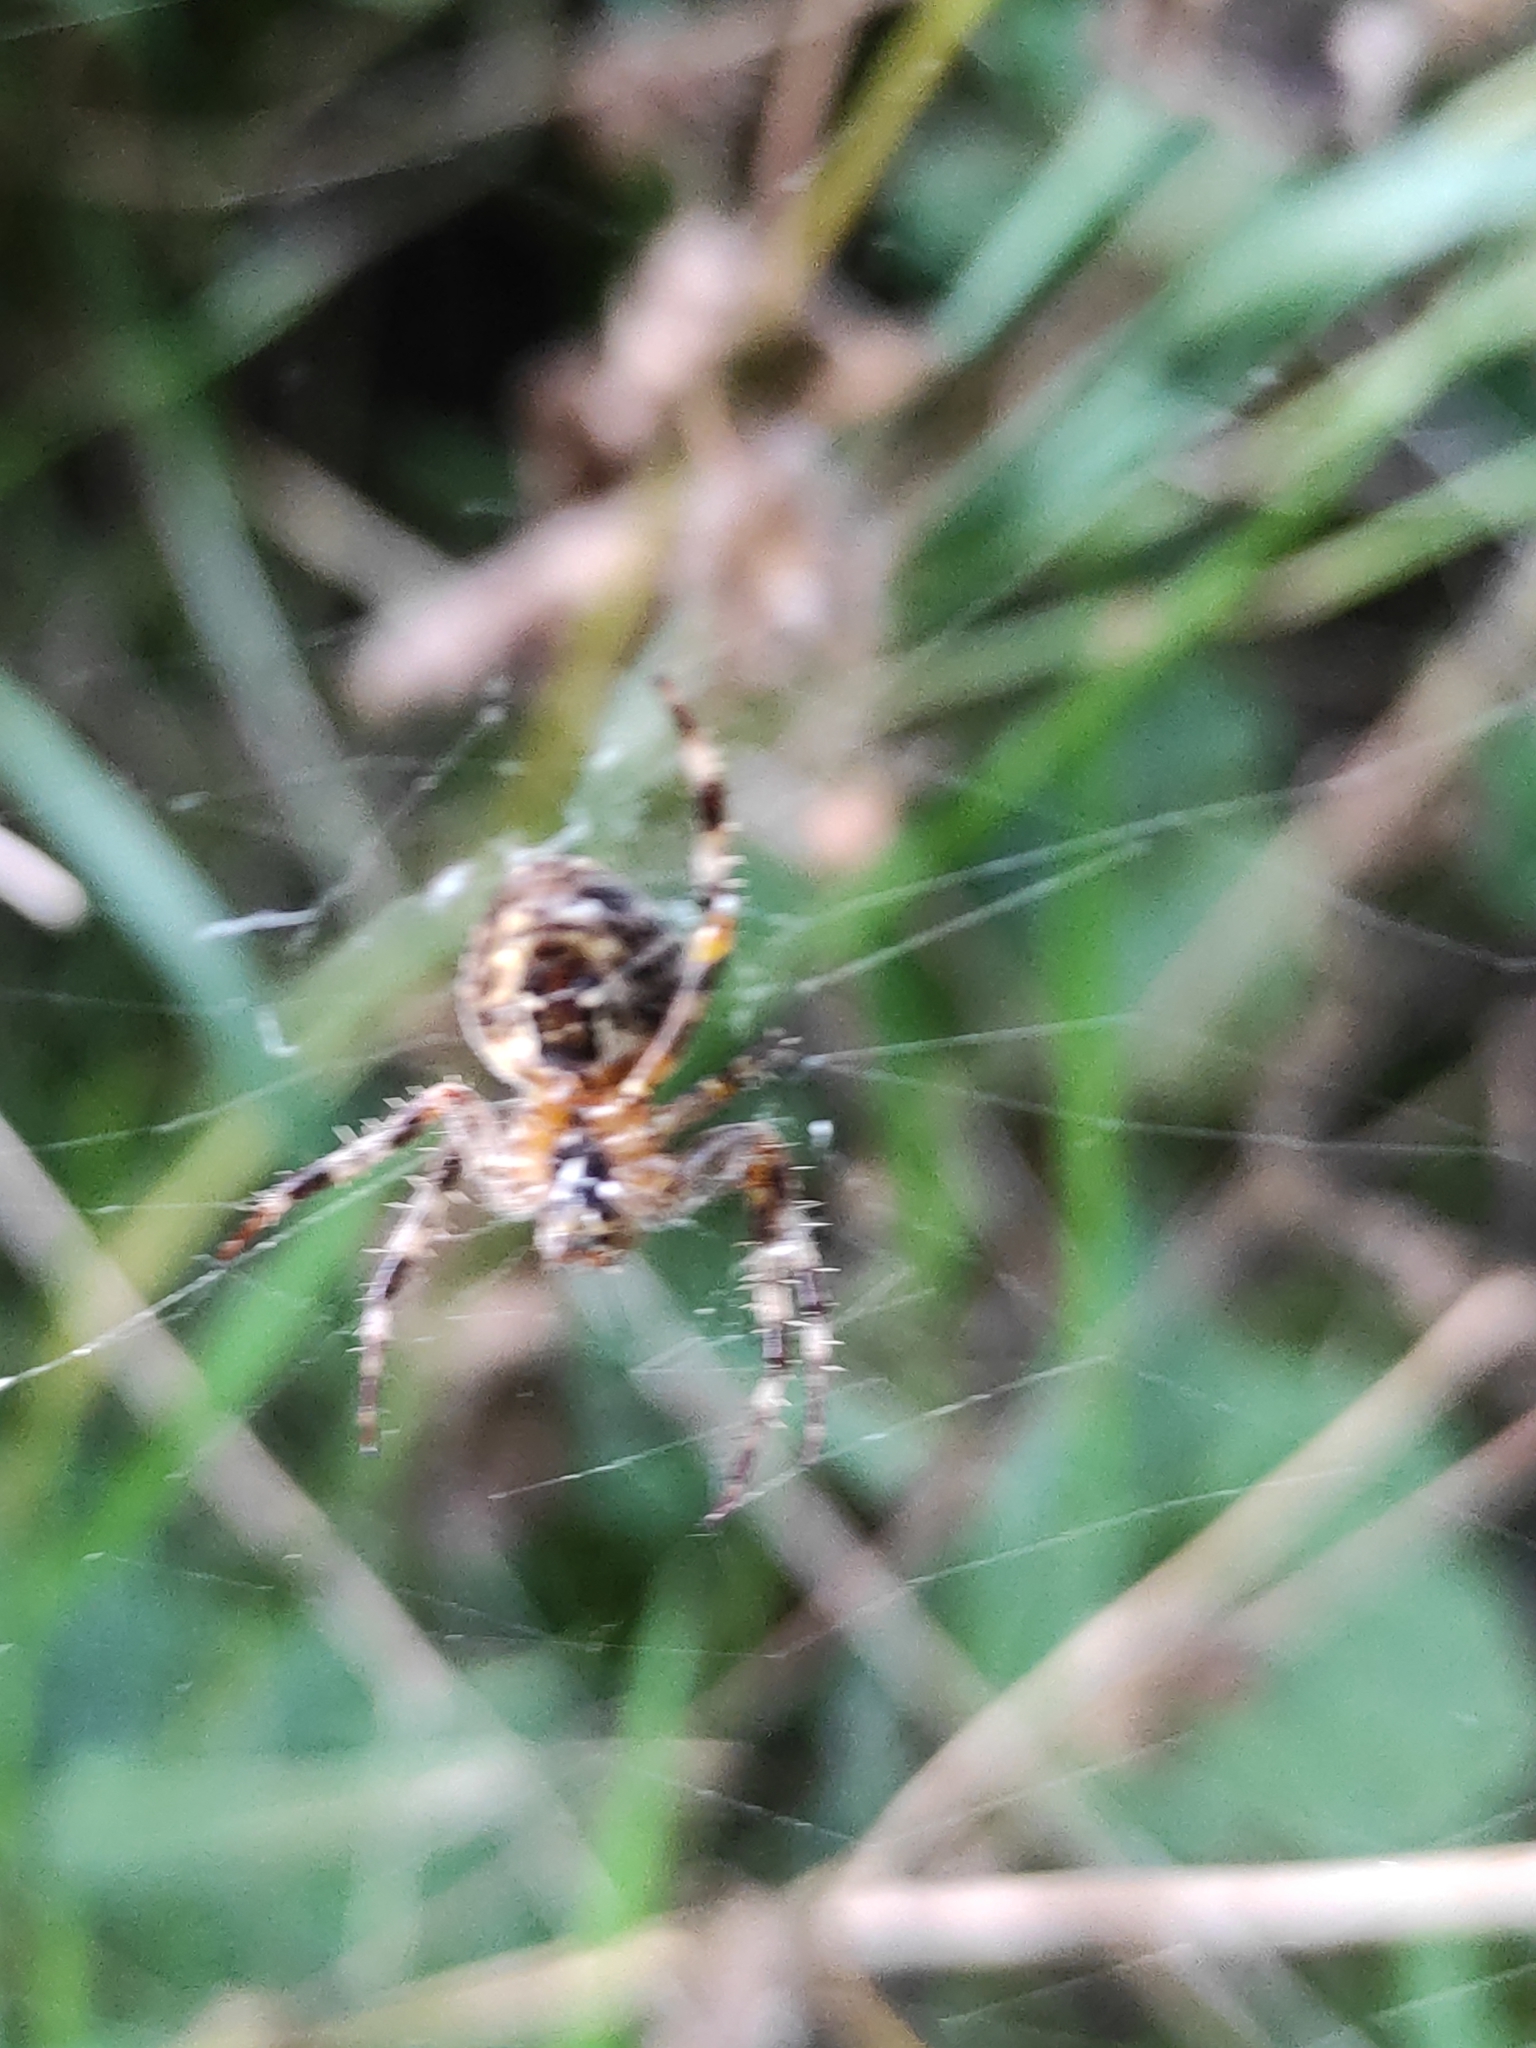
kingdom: Animalia
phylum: Arthropoda
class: Arachnida
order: Araneae
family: Araneidae
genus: Araneus
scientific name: Araneus diadematus
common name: Cross orbweaver
